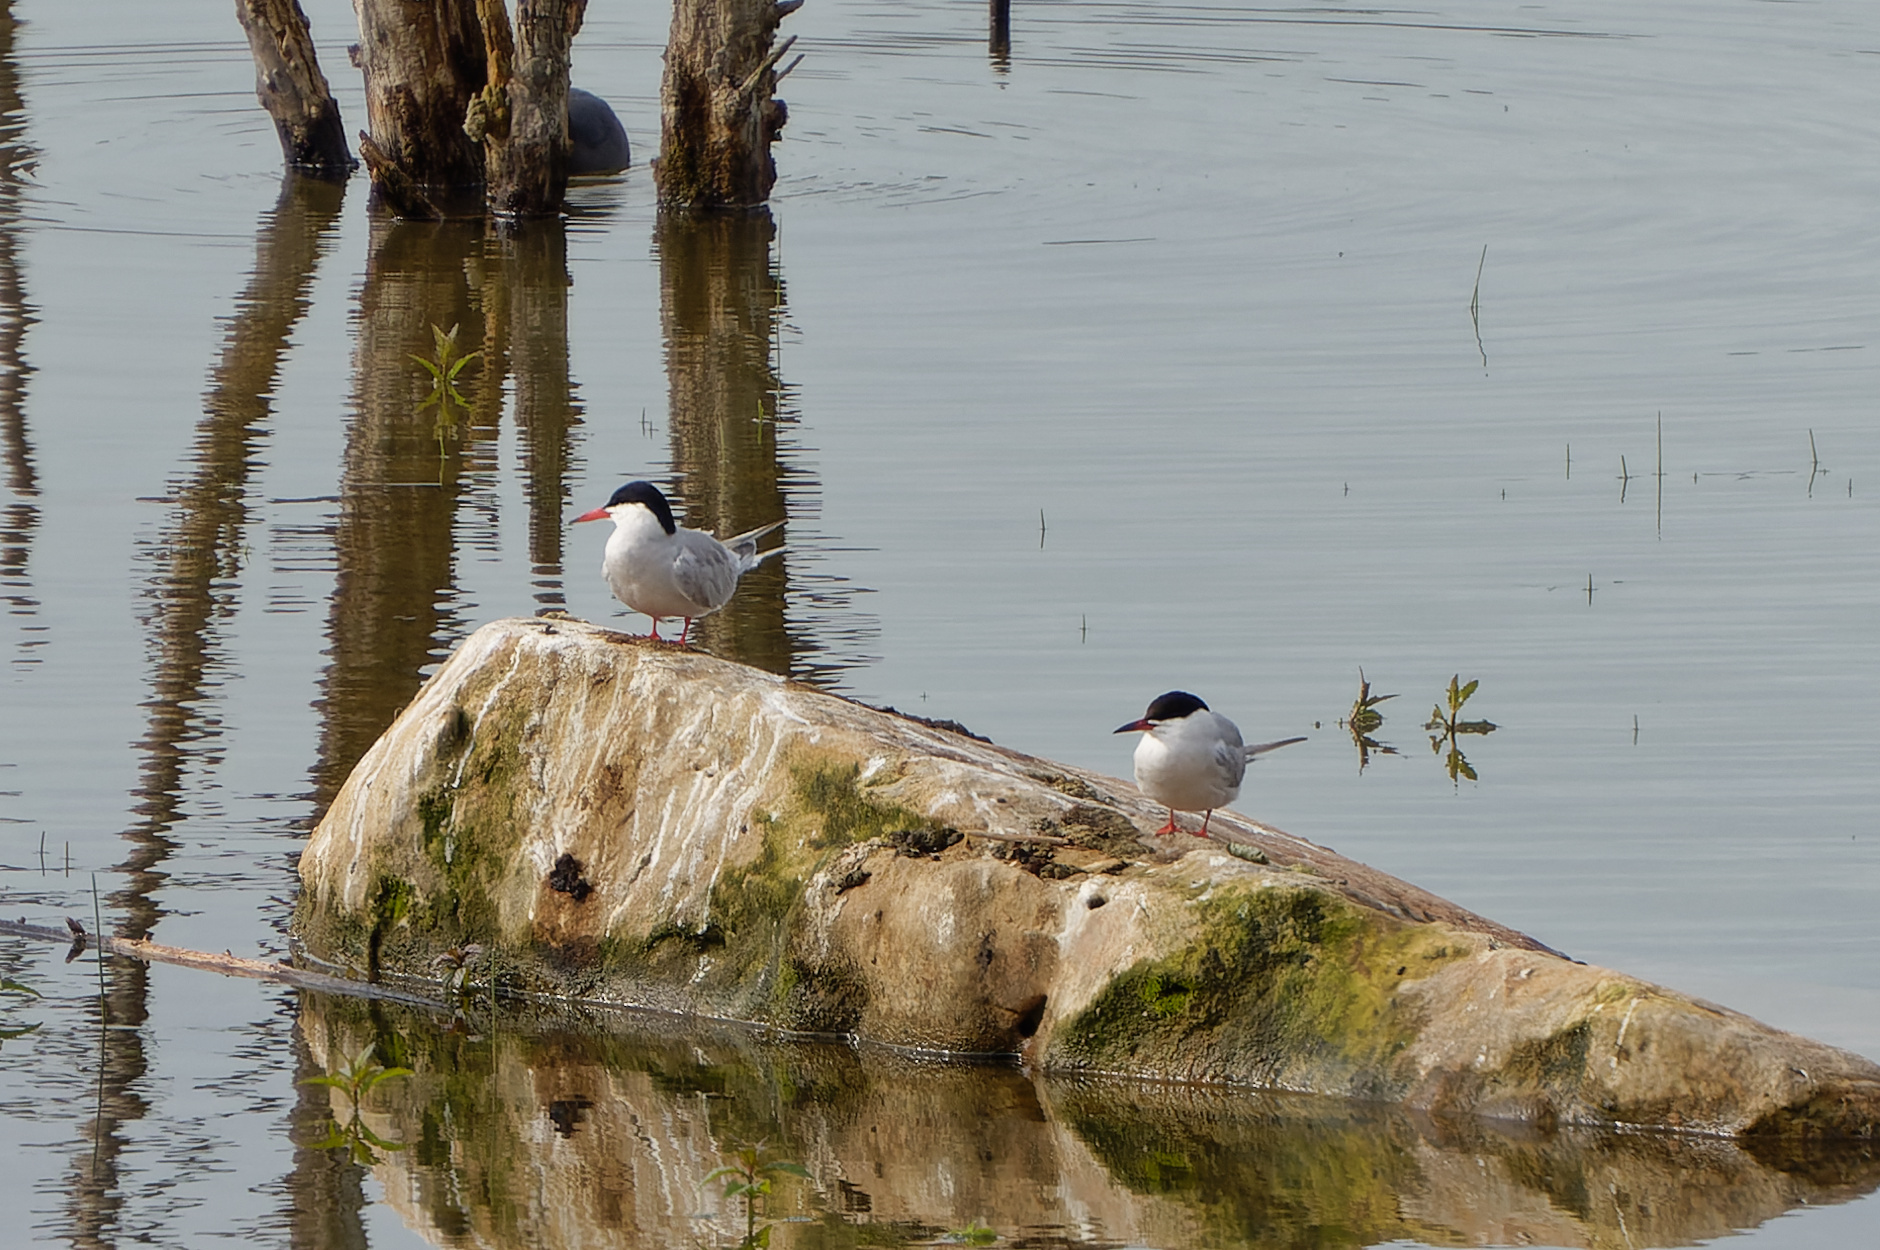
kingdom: Animalia
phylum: Chordata
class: Aves
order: Charadriiformes
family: Laridae
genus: Sterna
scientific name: Sterna hirundo
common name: Common tern
